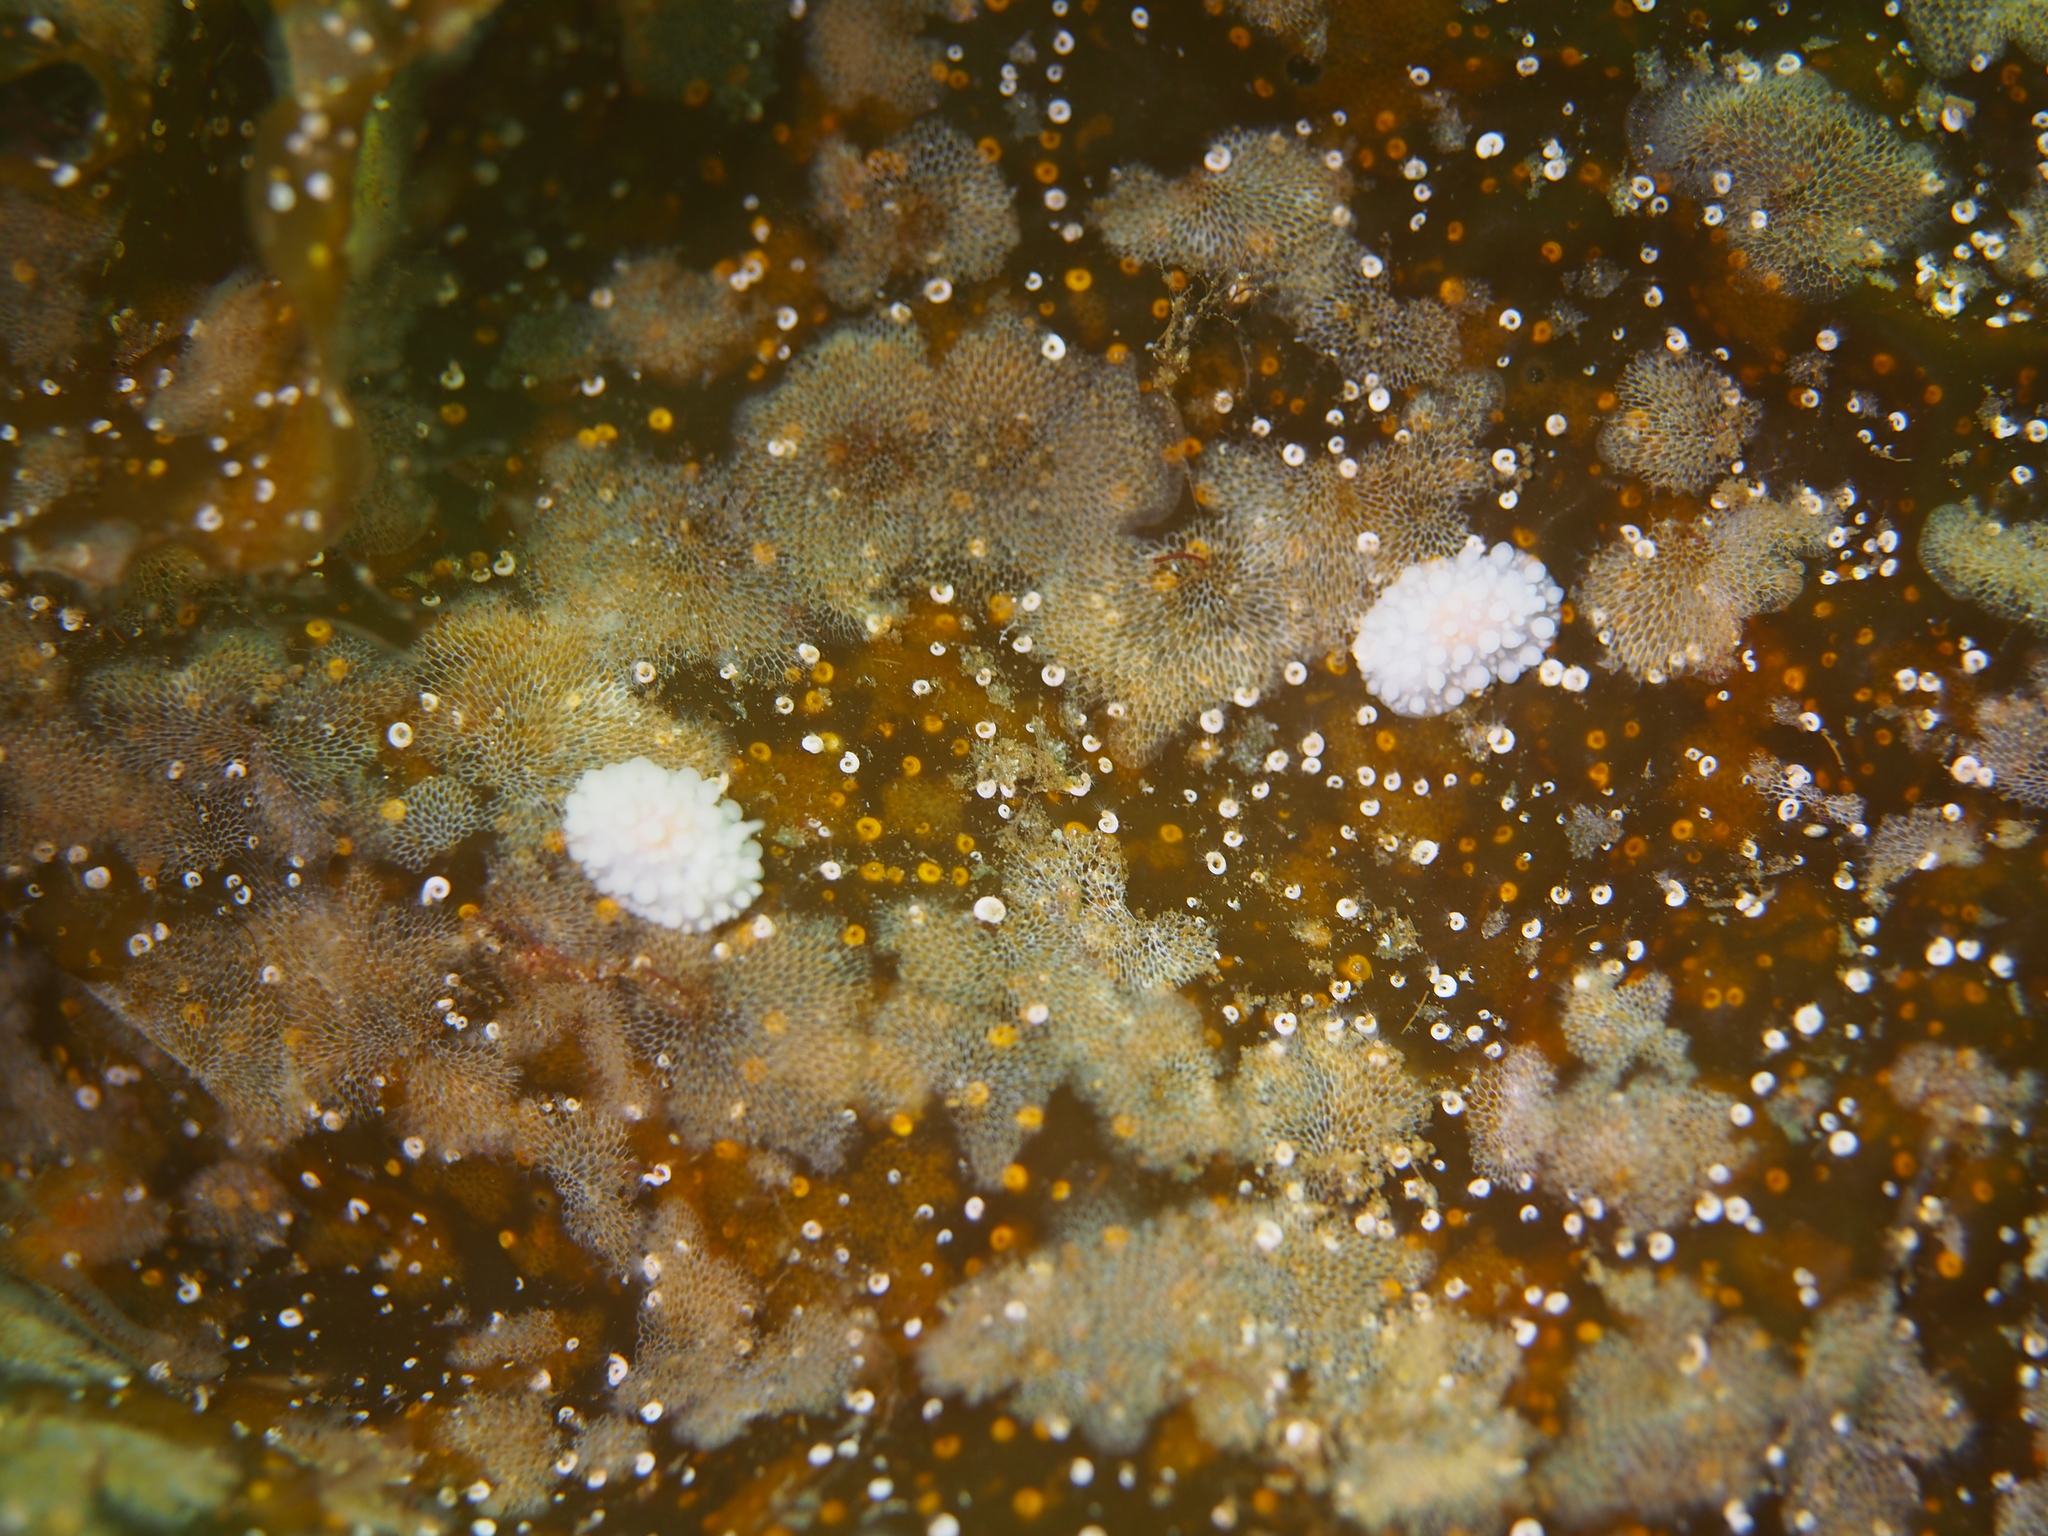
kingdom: Animalia
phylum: Mollusca
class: Gastropoda
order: Nudibranchia
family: Onchidorididae
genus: Adalaria
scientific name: Adalaria proxima
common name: False doris
